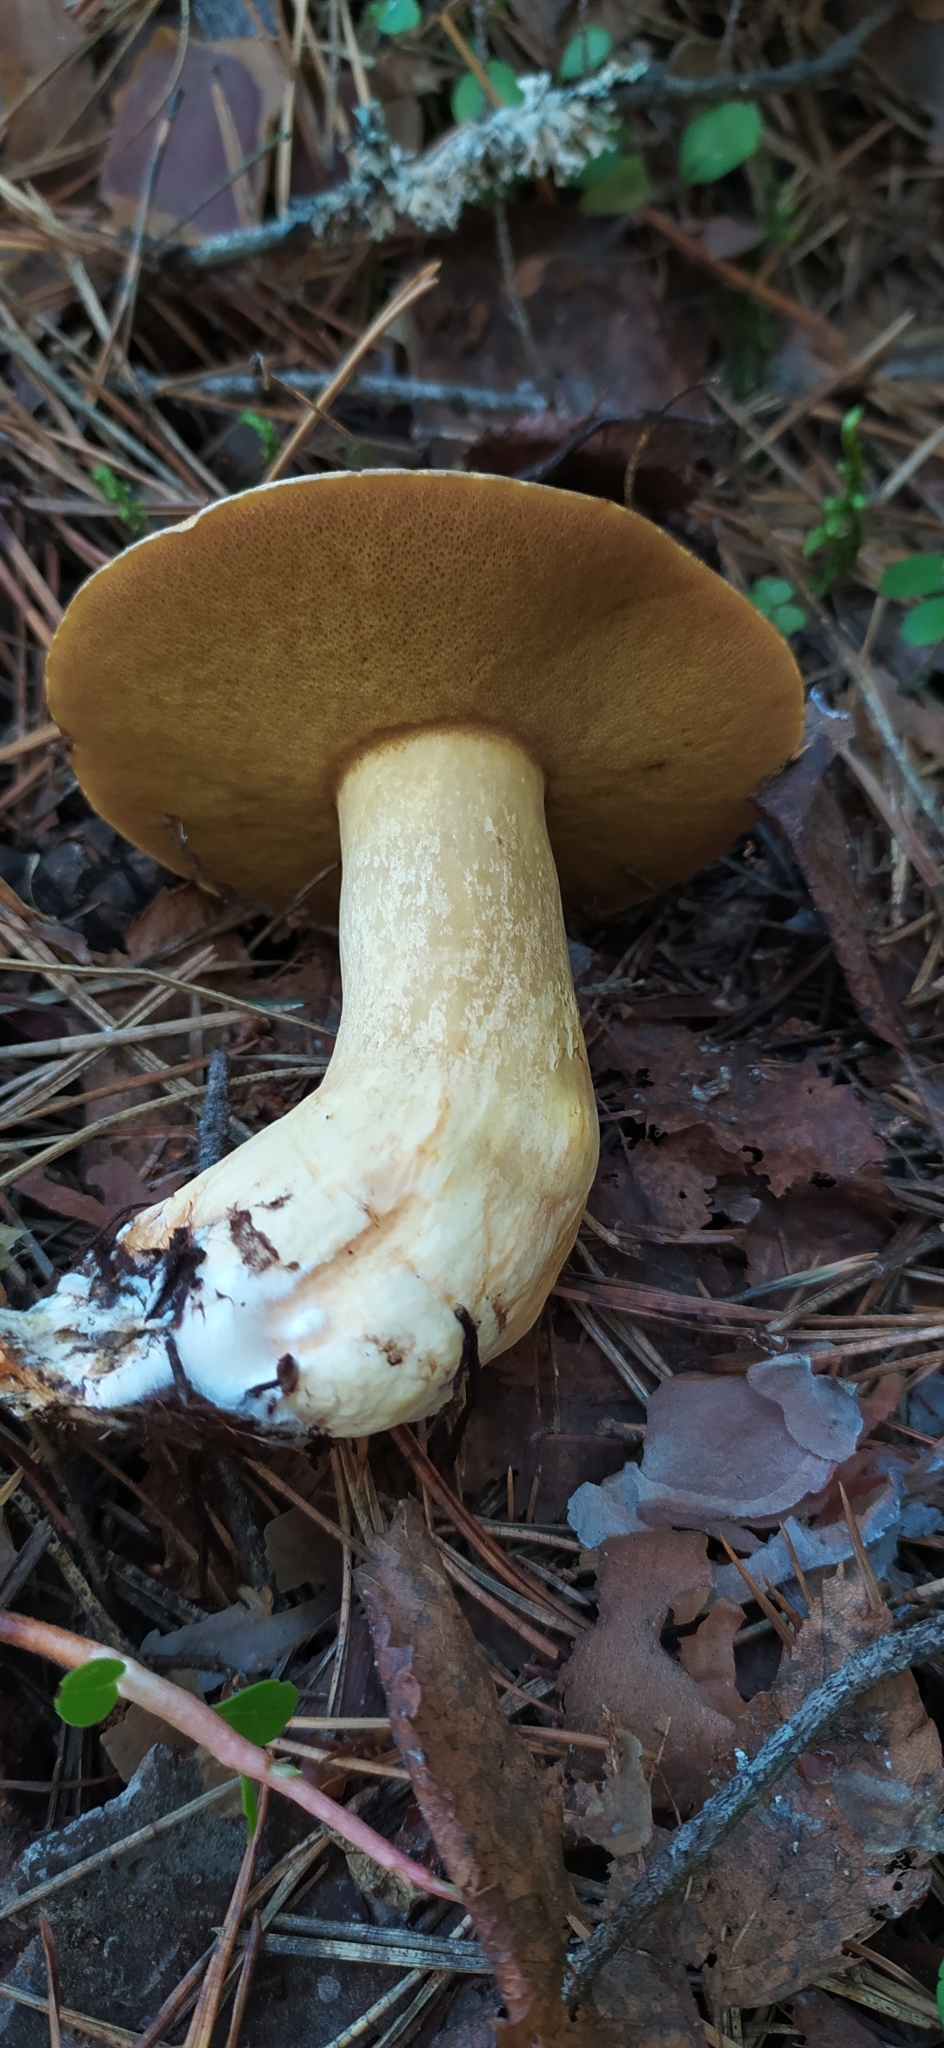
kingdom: Fungi
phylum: Basidiomycota
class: Agaricomycetes
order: Boletales
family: Suillaceae
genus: Suillus
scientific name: Suillus variegatus
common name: Velvet bolete
